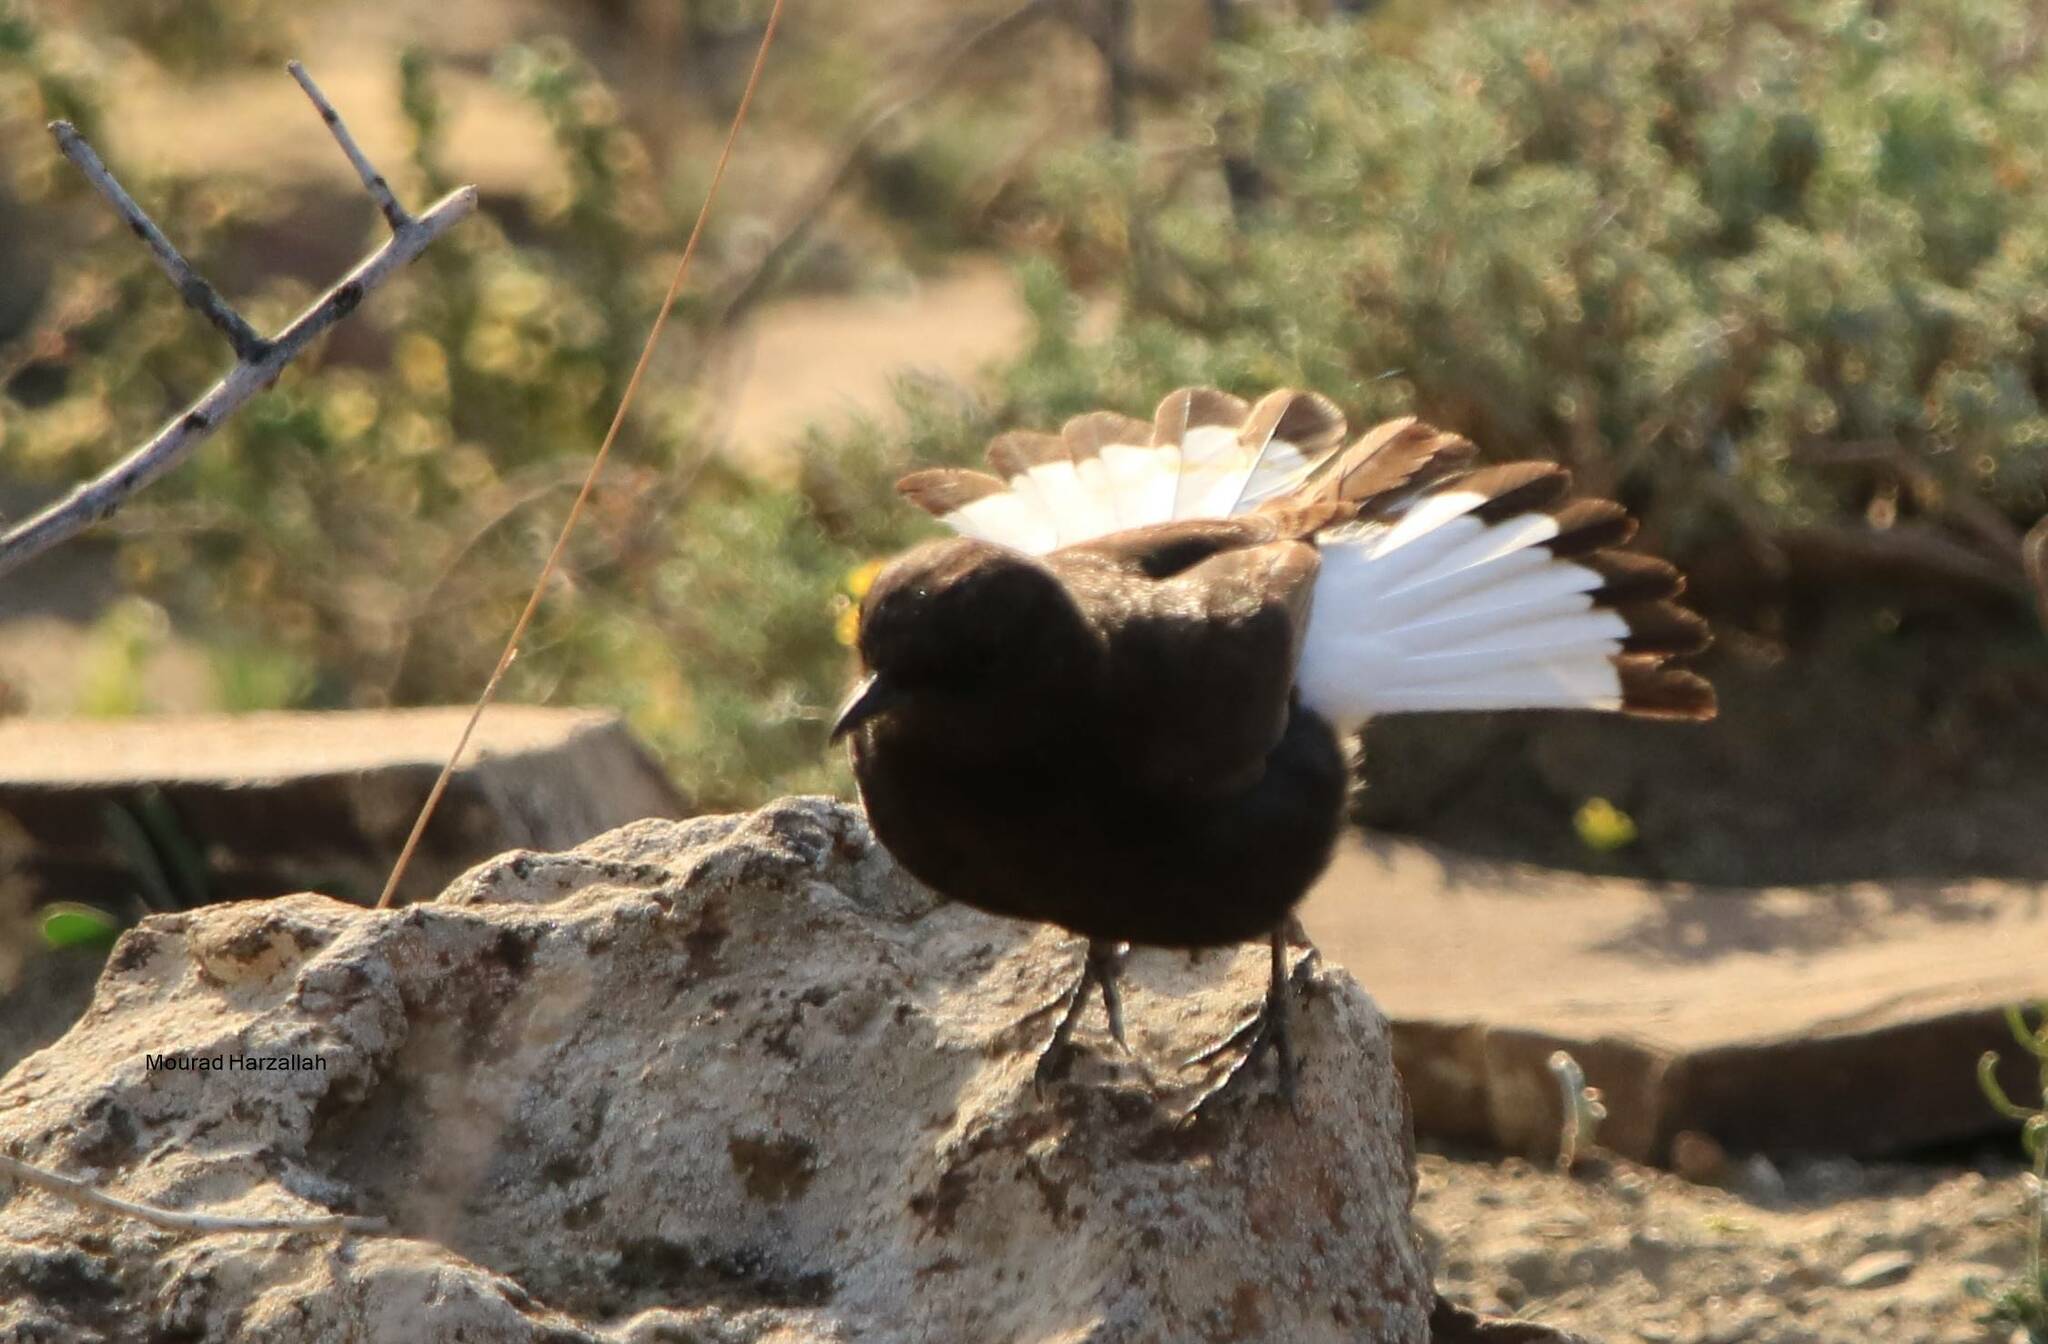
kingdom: Animalia
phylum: Chordata
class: Aves
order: Passeriformes
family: Muscicapidae
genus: Oenanthe
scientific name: Oenanthe leucura
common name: Black wheatear
